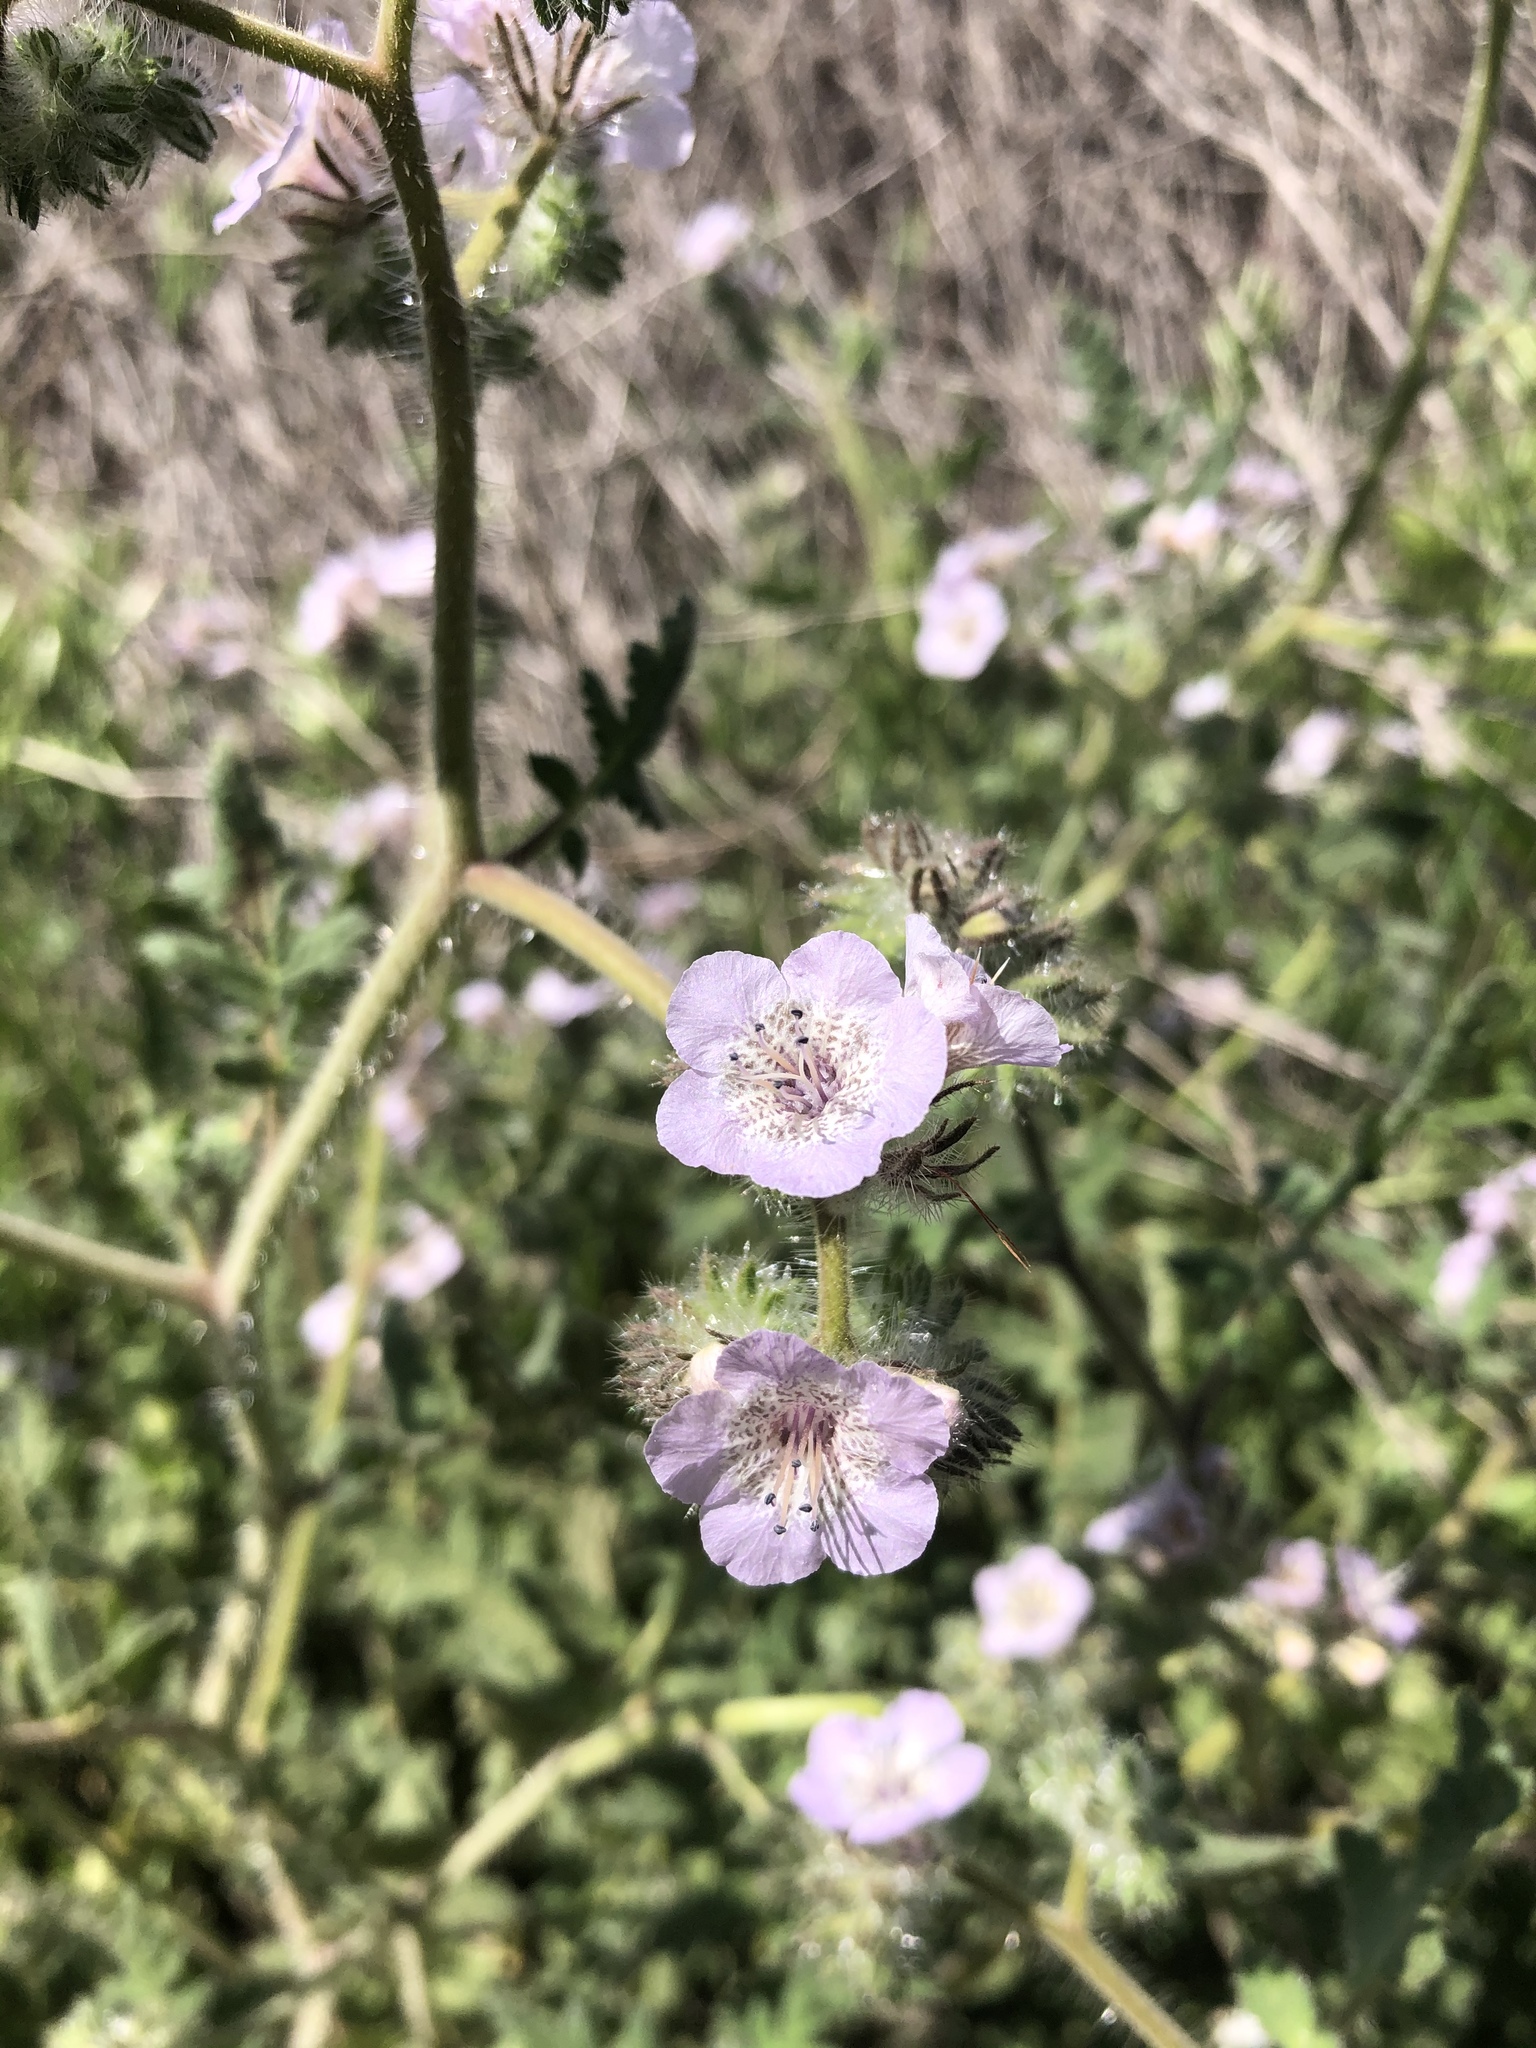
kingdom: Plantae
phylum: Tracheophyta
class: Magnoliopsida
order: Boraginales
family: Hydrophyllaceae
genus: Phacelia
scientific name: Phacelia cicutaria
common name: Caterpillar phacelia
